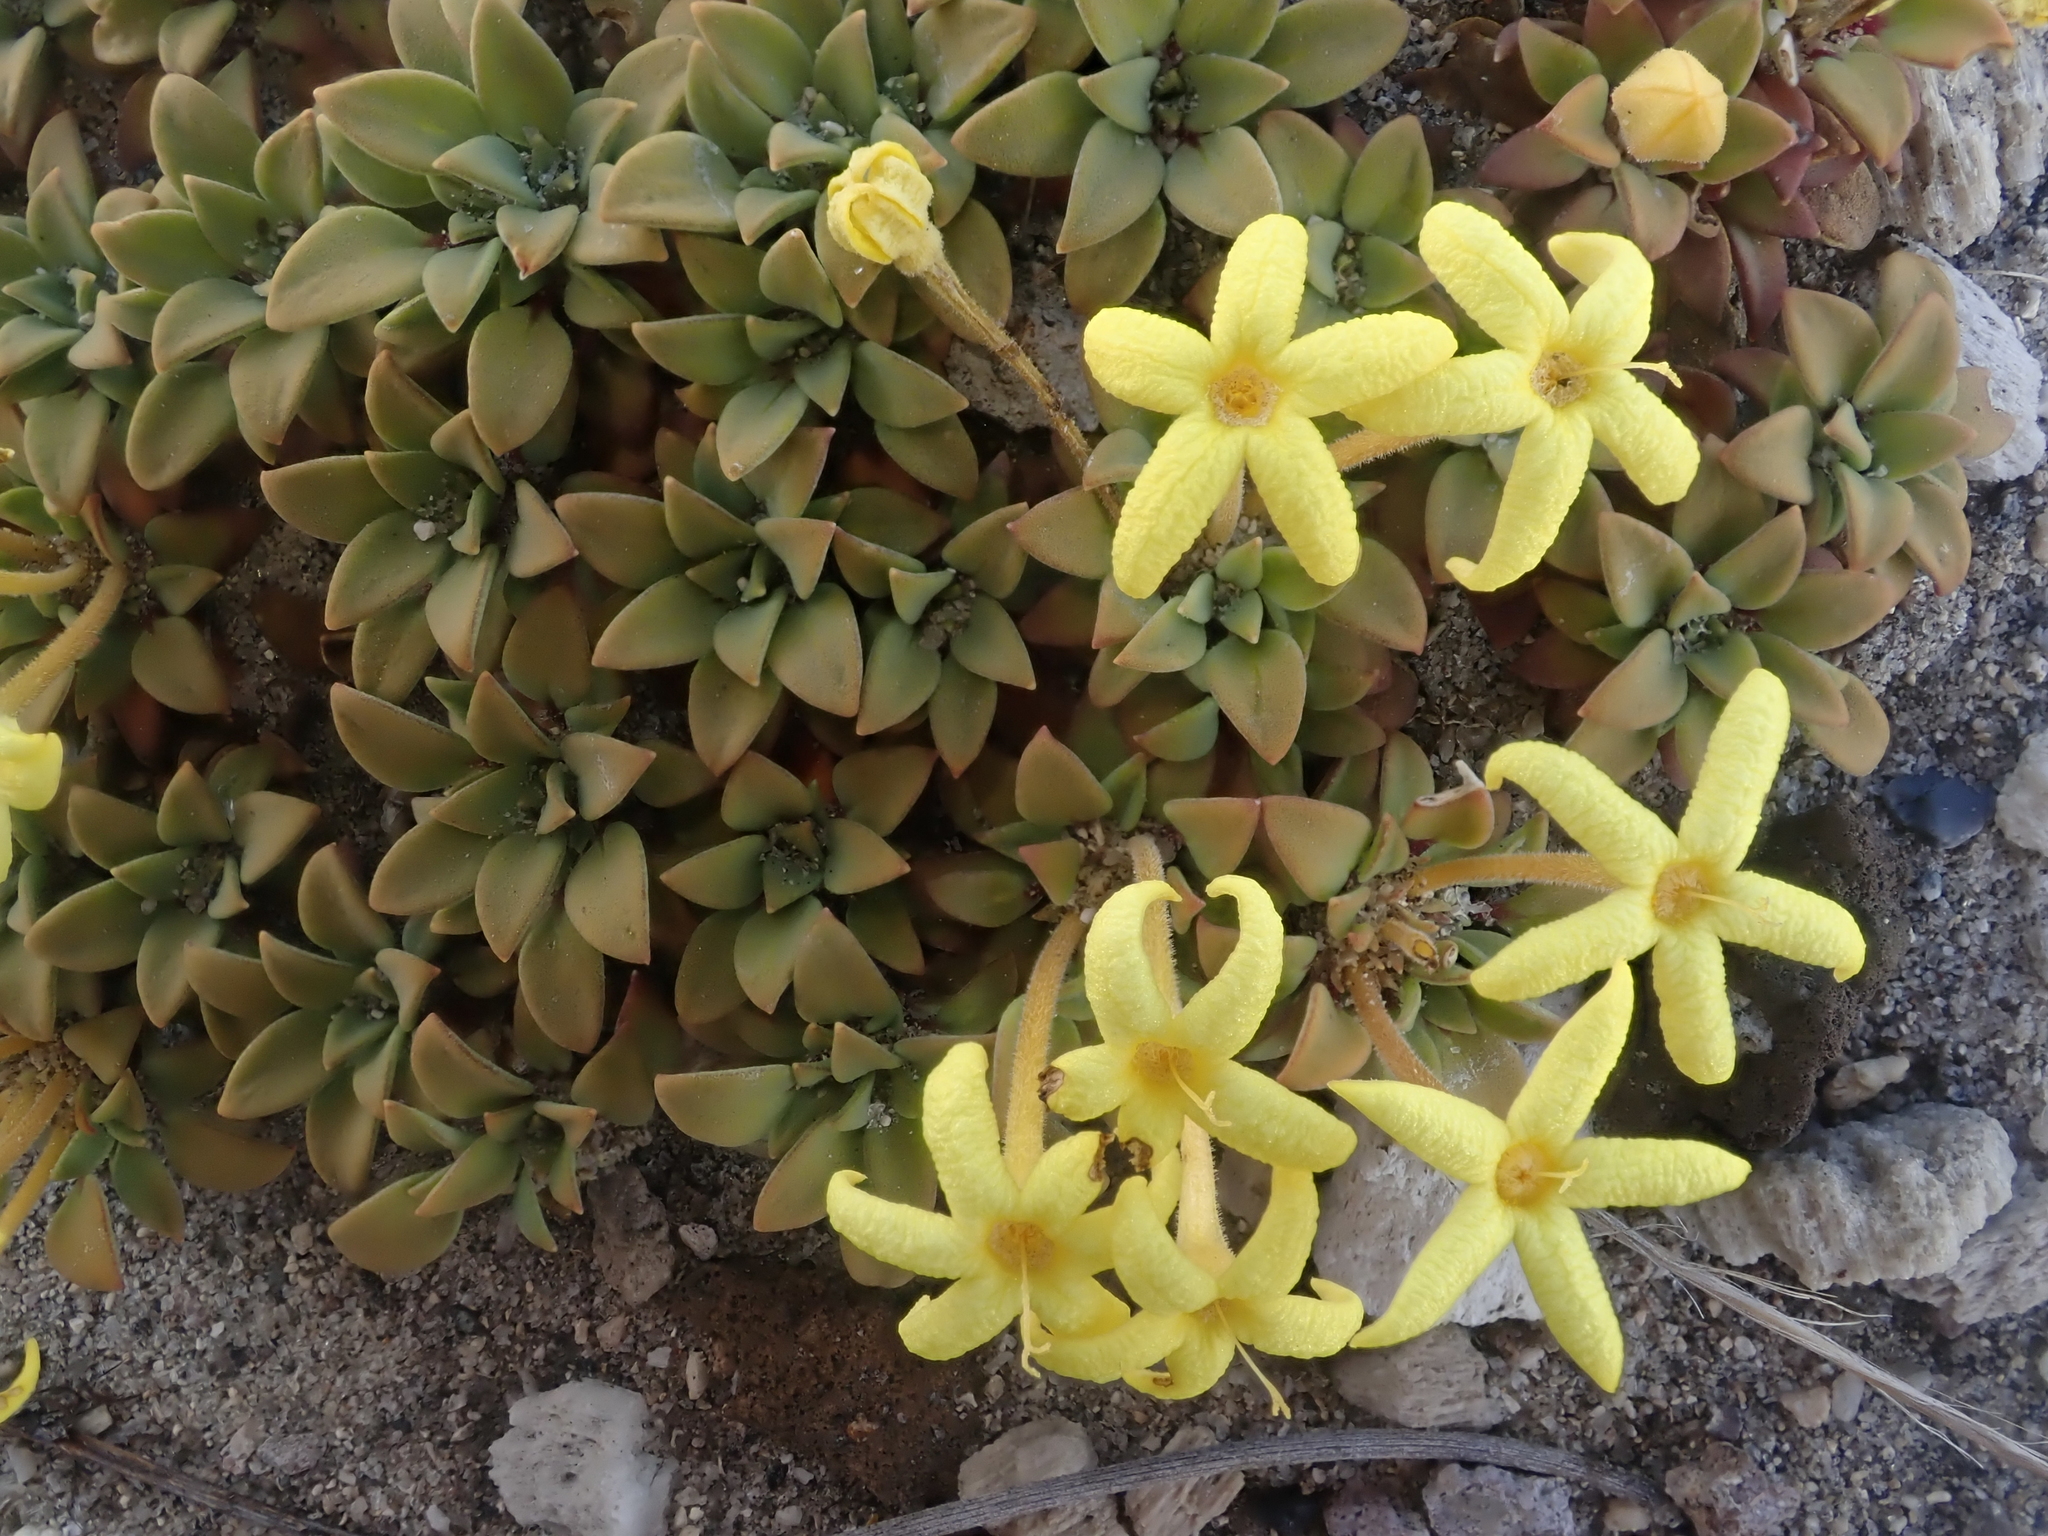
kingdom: Plantae
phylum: Tracheophyta
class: Magnoliopsida
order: Gentianales
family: Rubiaceae
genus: Oreopolus
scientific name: Oreopolus glacialis
